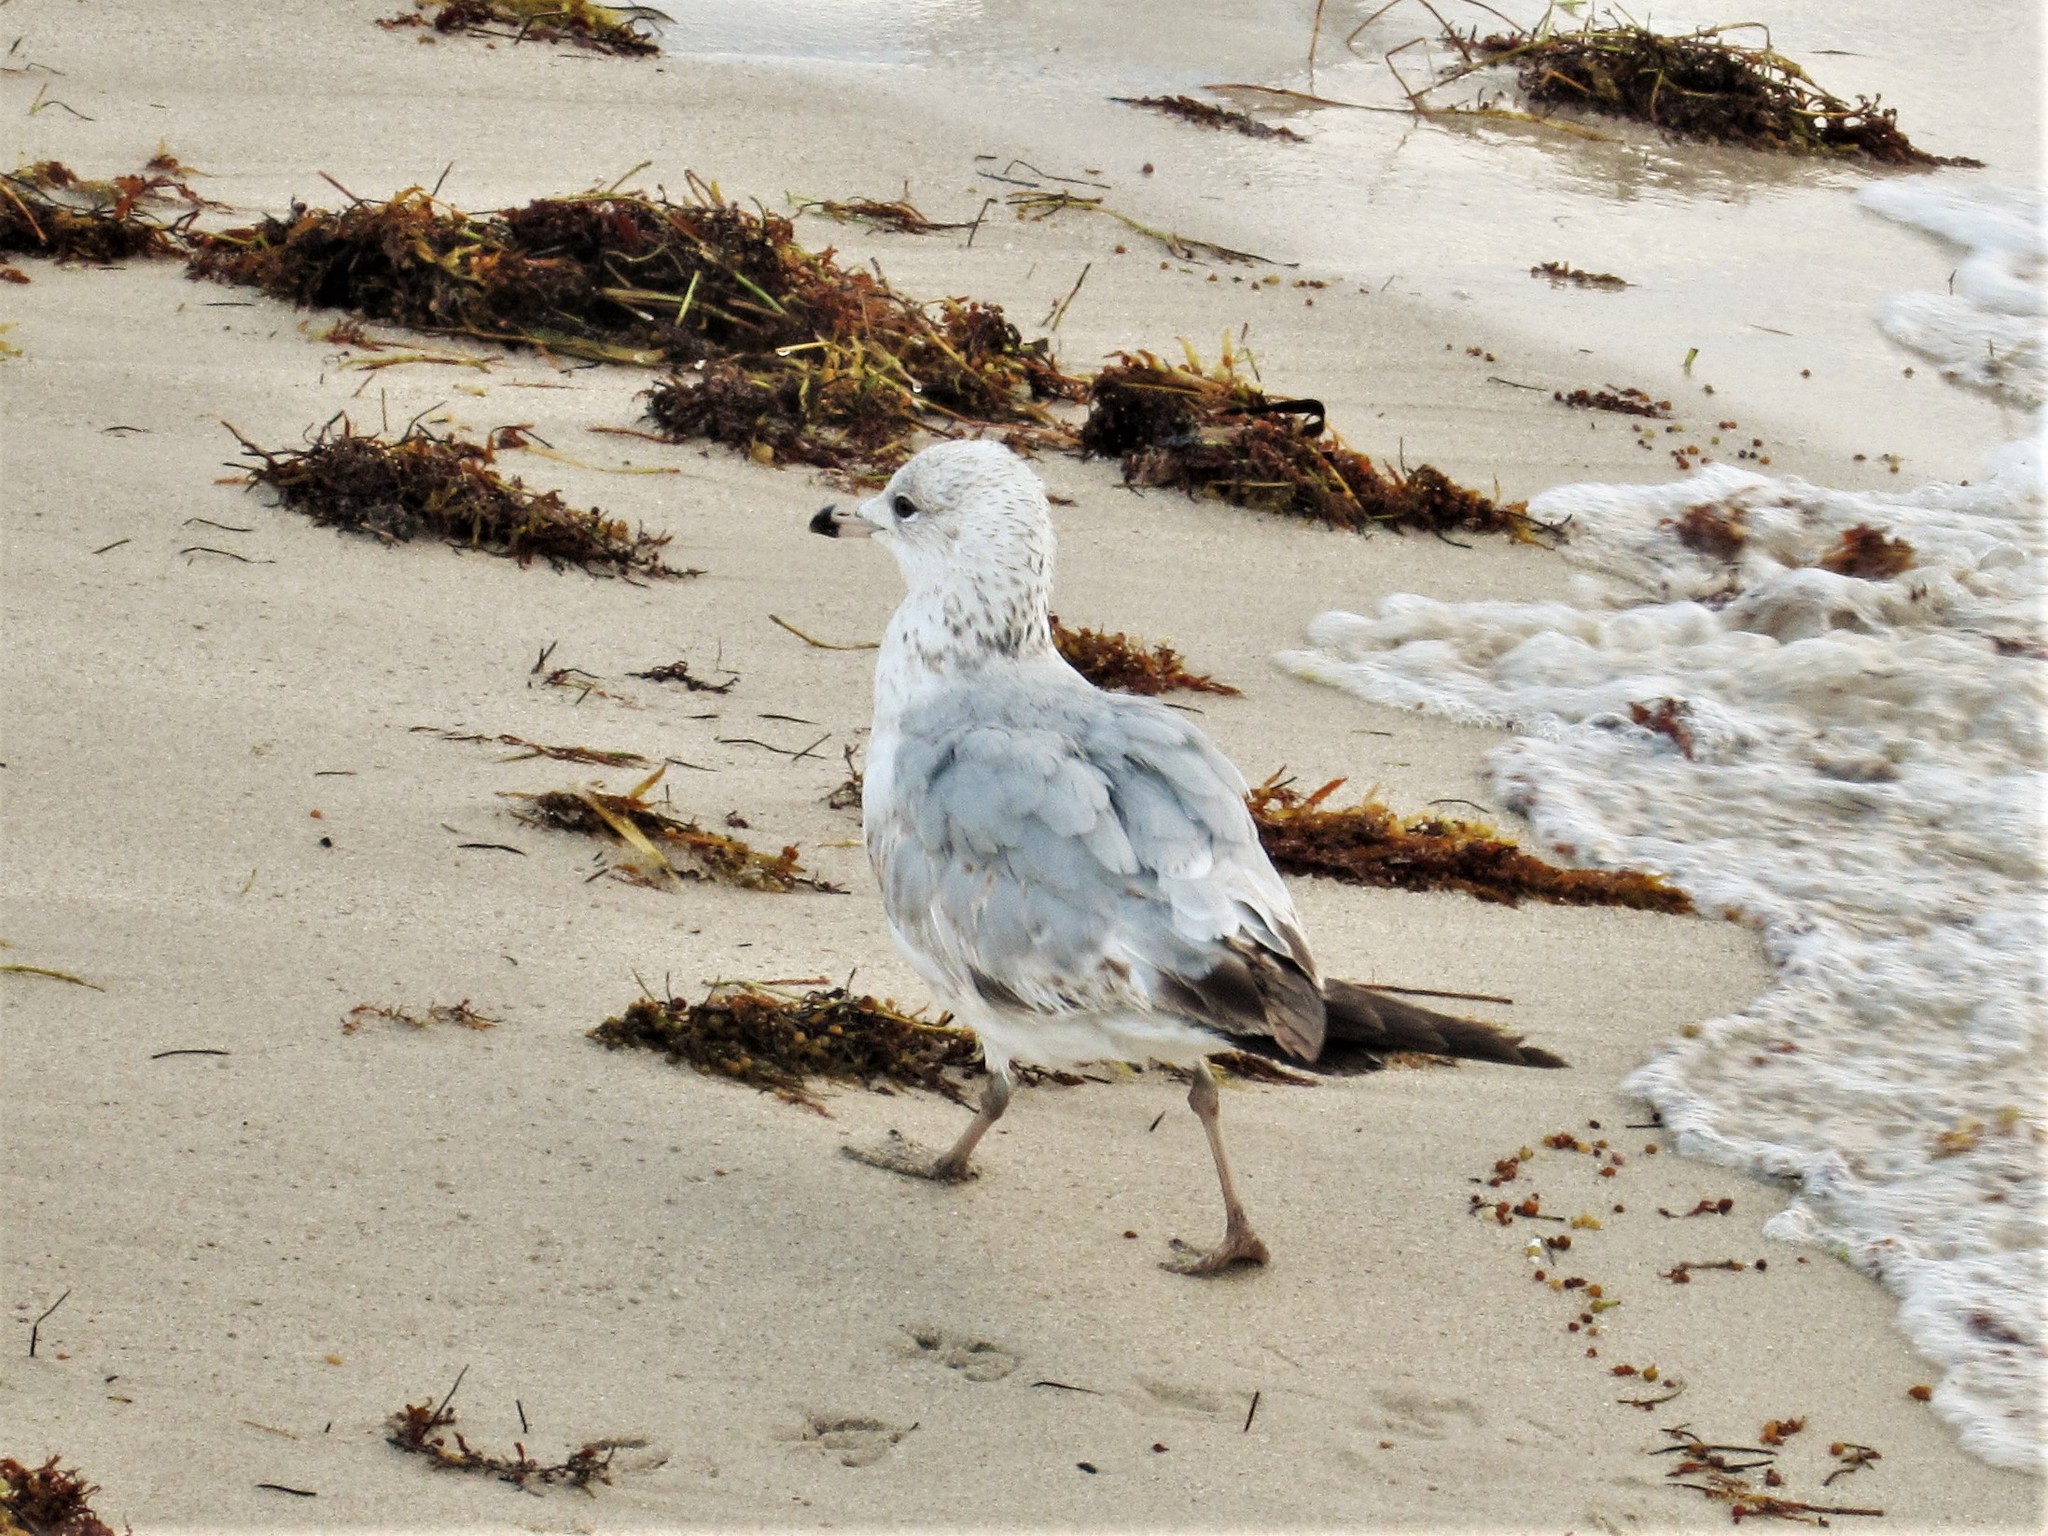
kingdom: Animalia
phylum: Chordata
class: Aves
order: Charadriiformes
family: Laridae
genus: Larus
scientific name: Larus delawarensis
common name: Ring-billed gull
